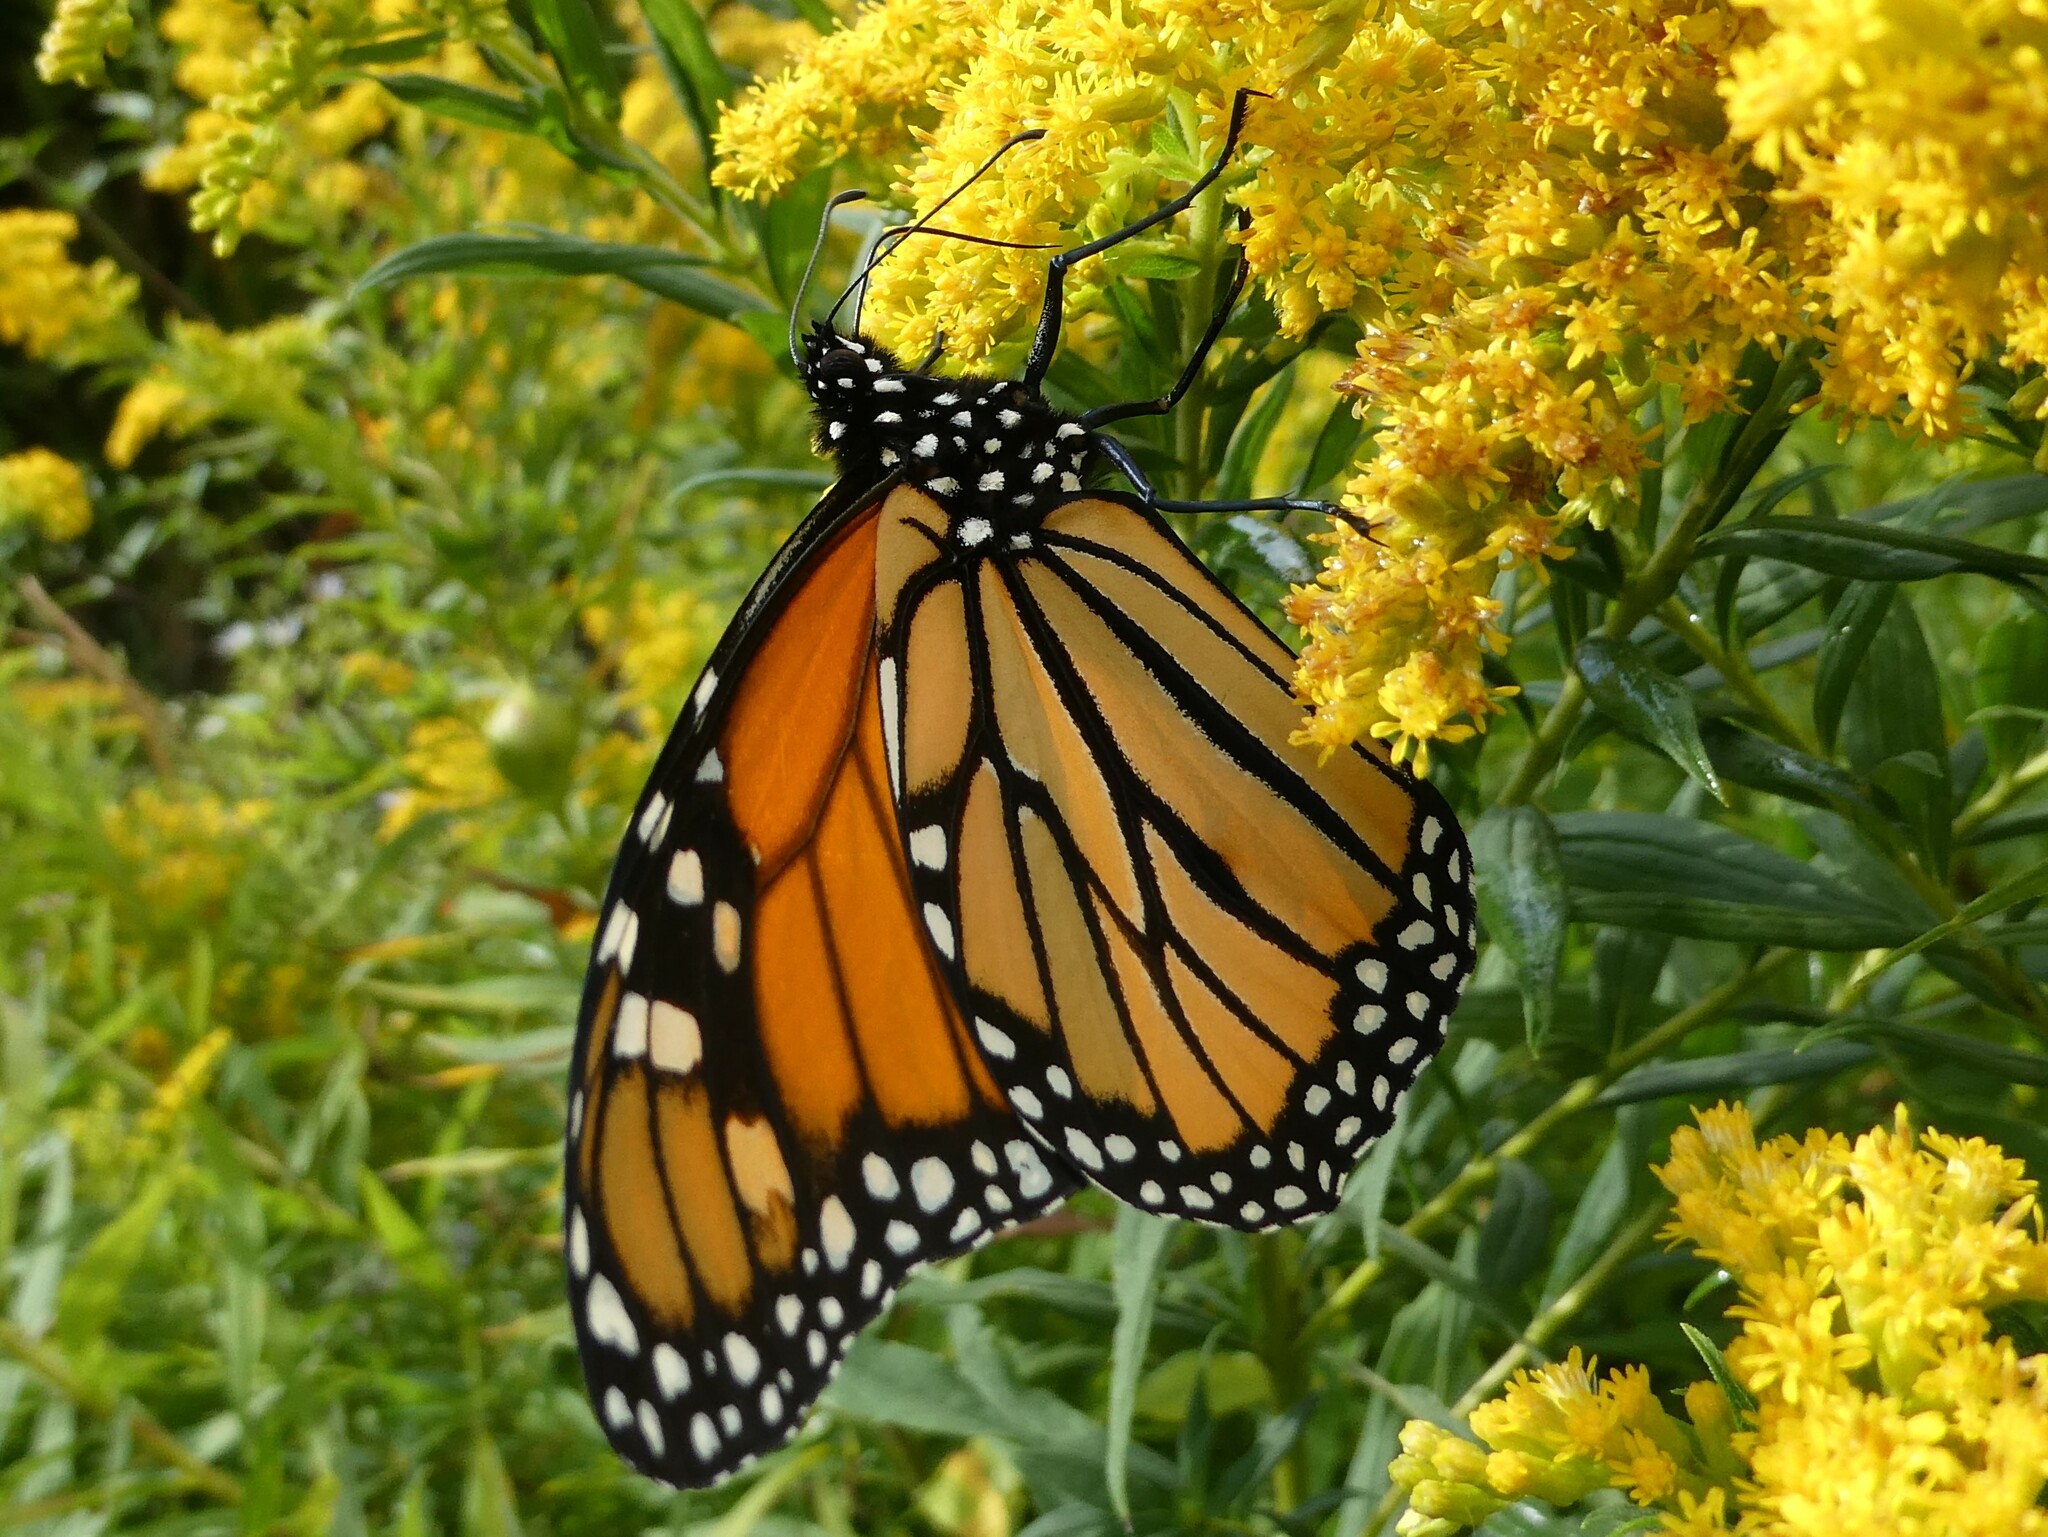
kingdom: Animalia
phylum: Arthropoda
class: Insecta
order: Lepidoptera
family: Nymphalidae
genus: Danaus
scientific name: Danaus plexippus
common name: Monarch
